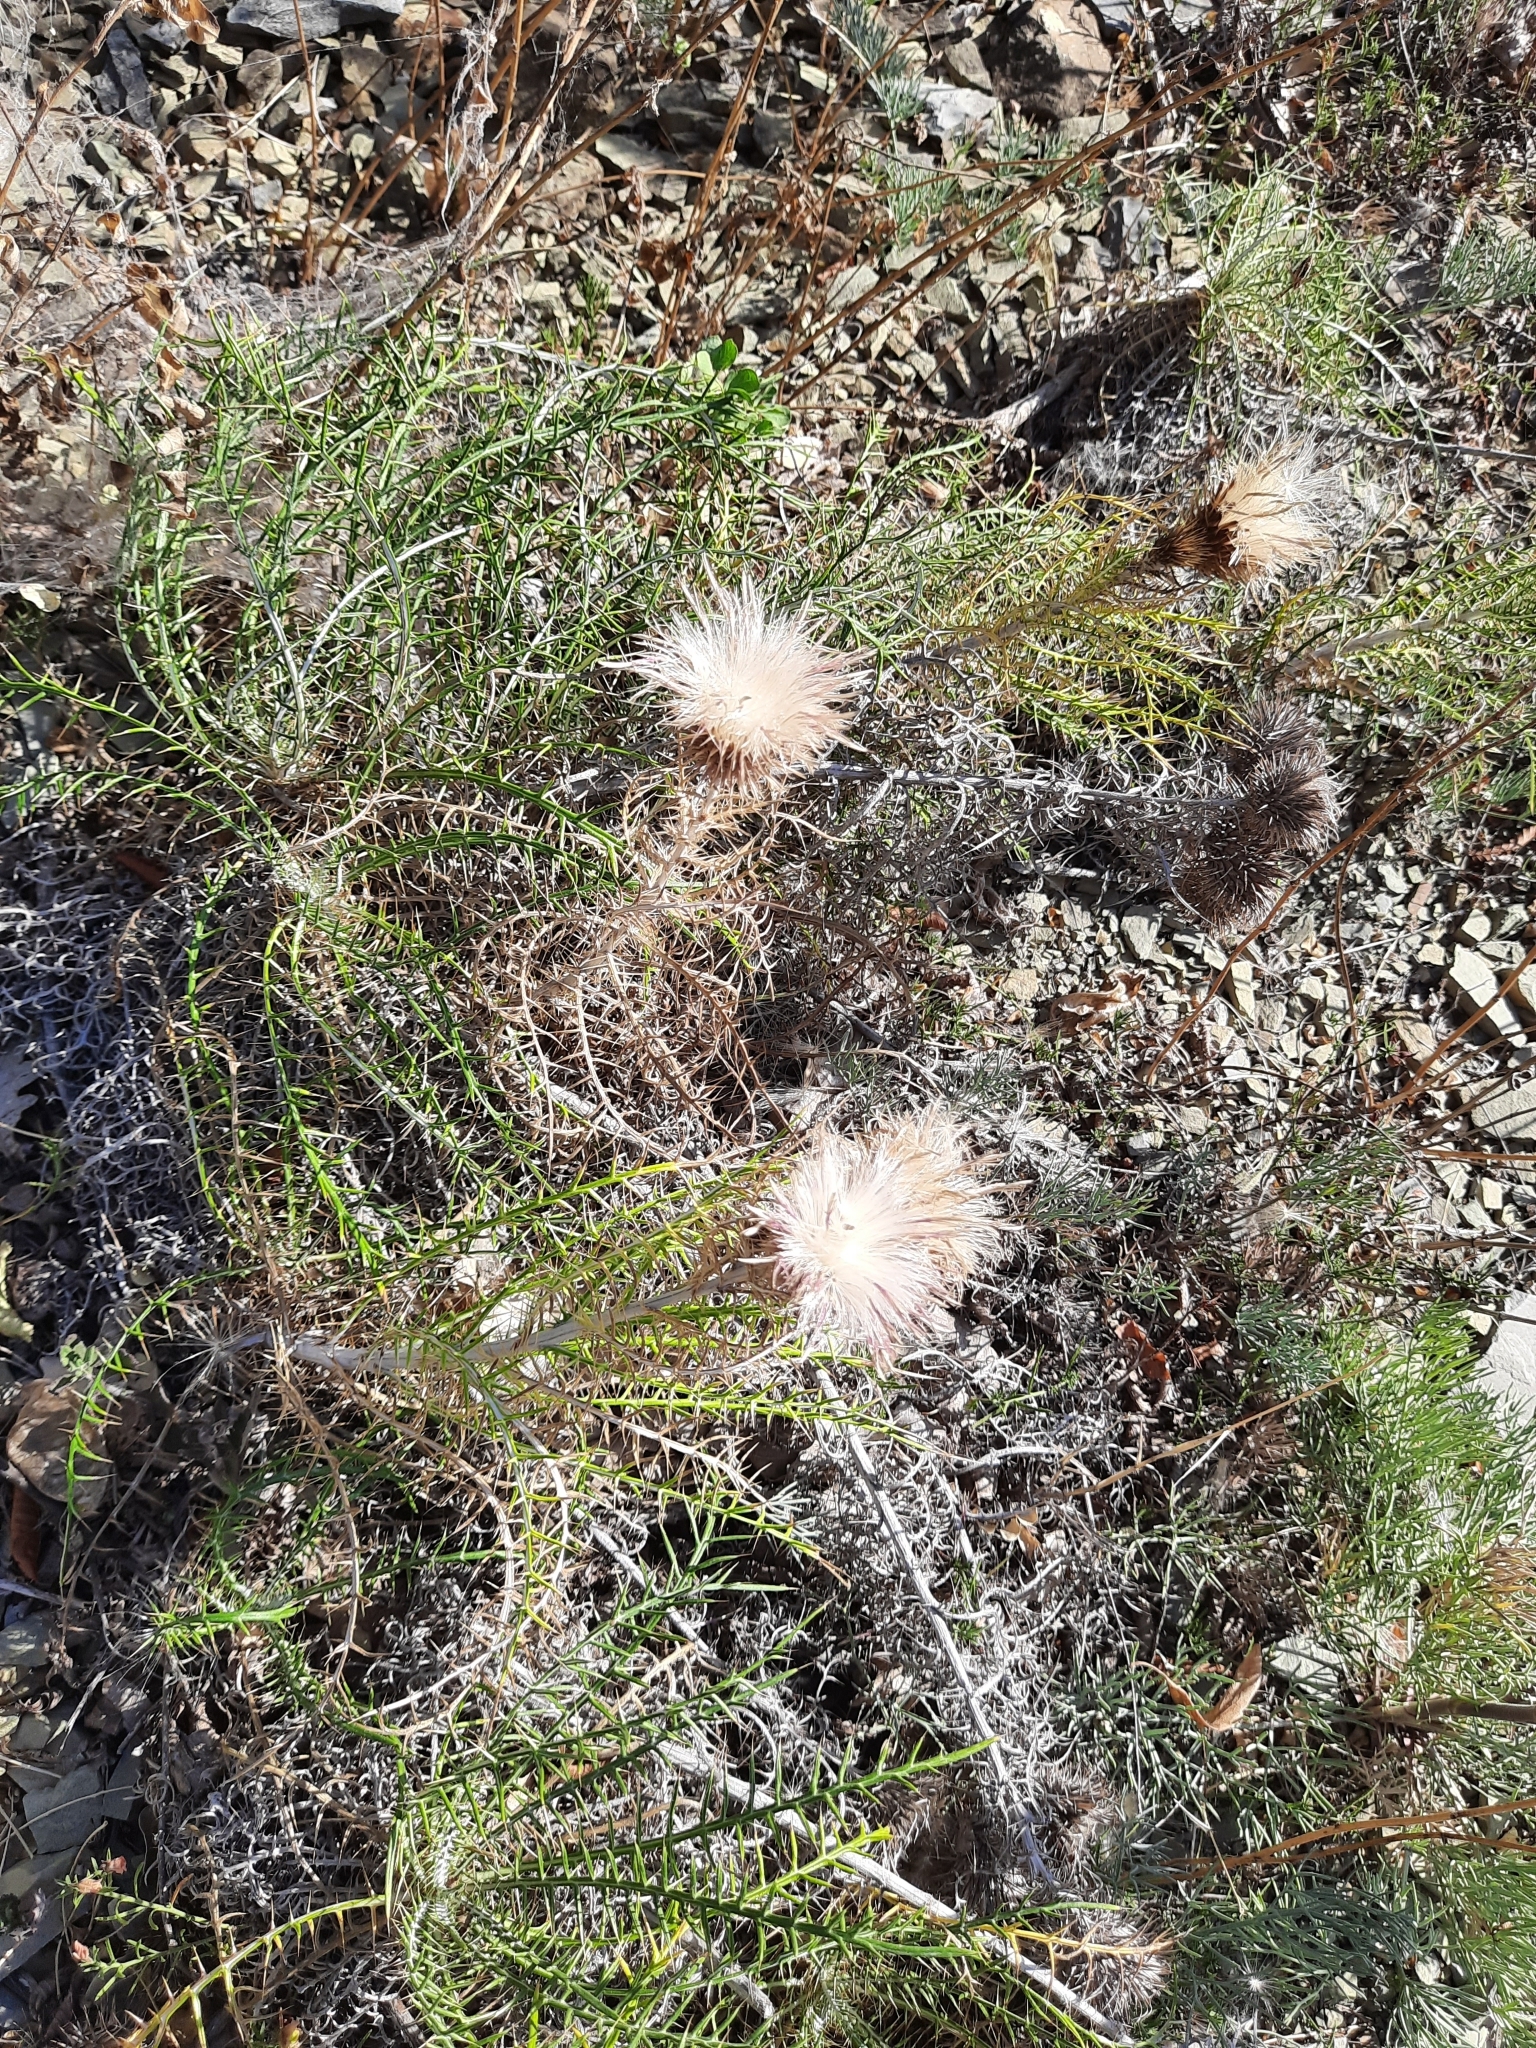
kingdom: Plantae
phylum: Tracheophyta
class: Magnoliopsida
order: Asterales
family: Asteraceae
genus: Ptilostemon
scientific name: Ptilostemon echinocephalus
